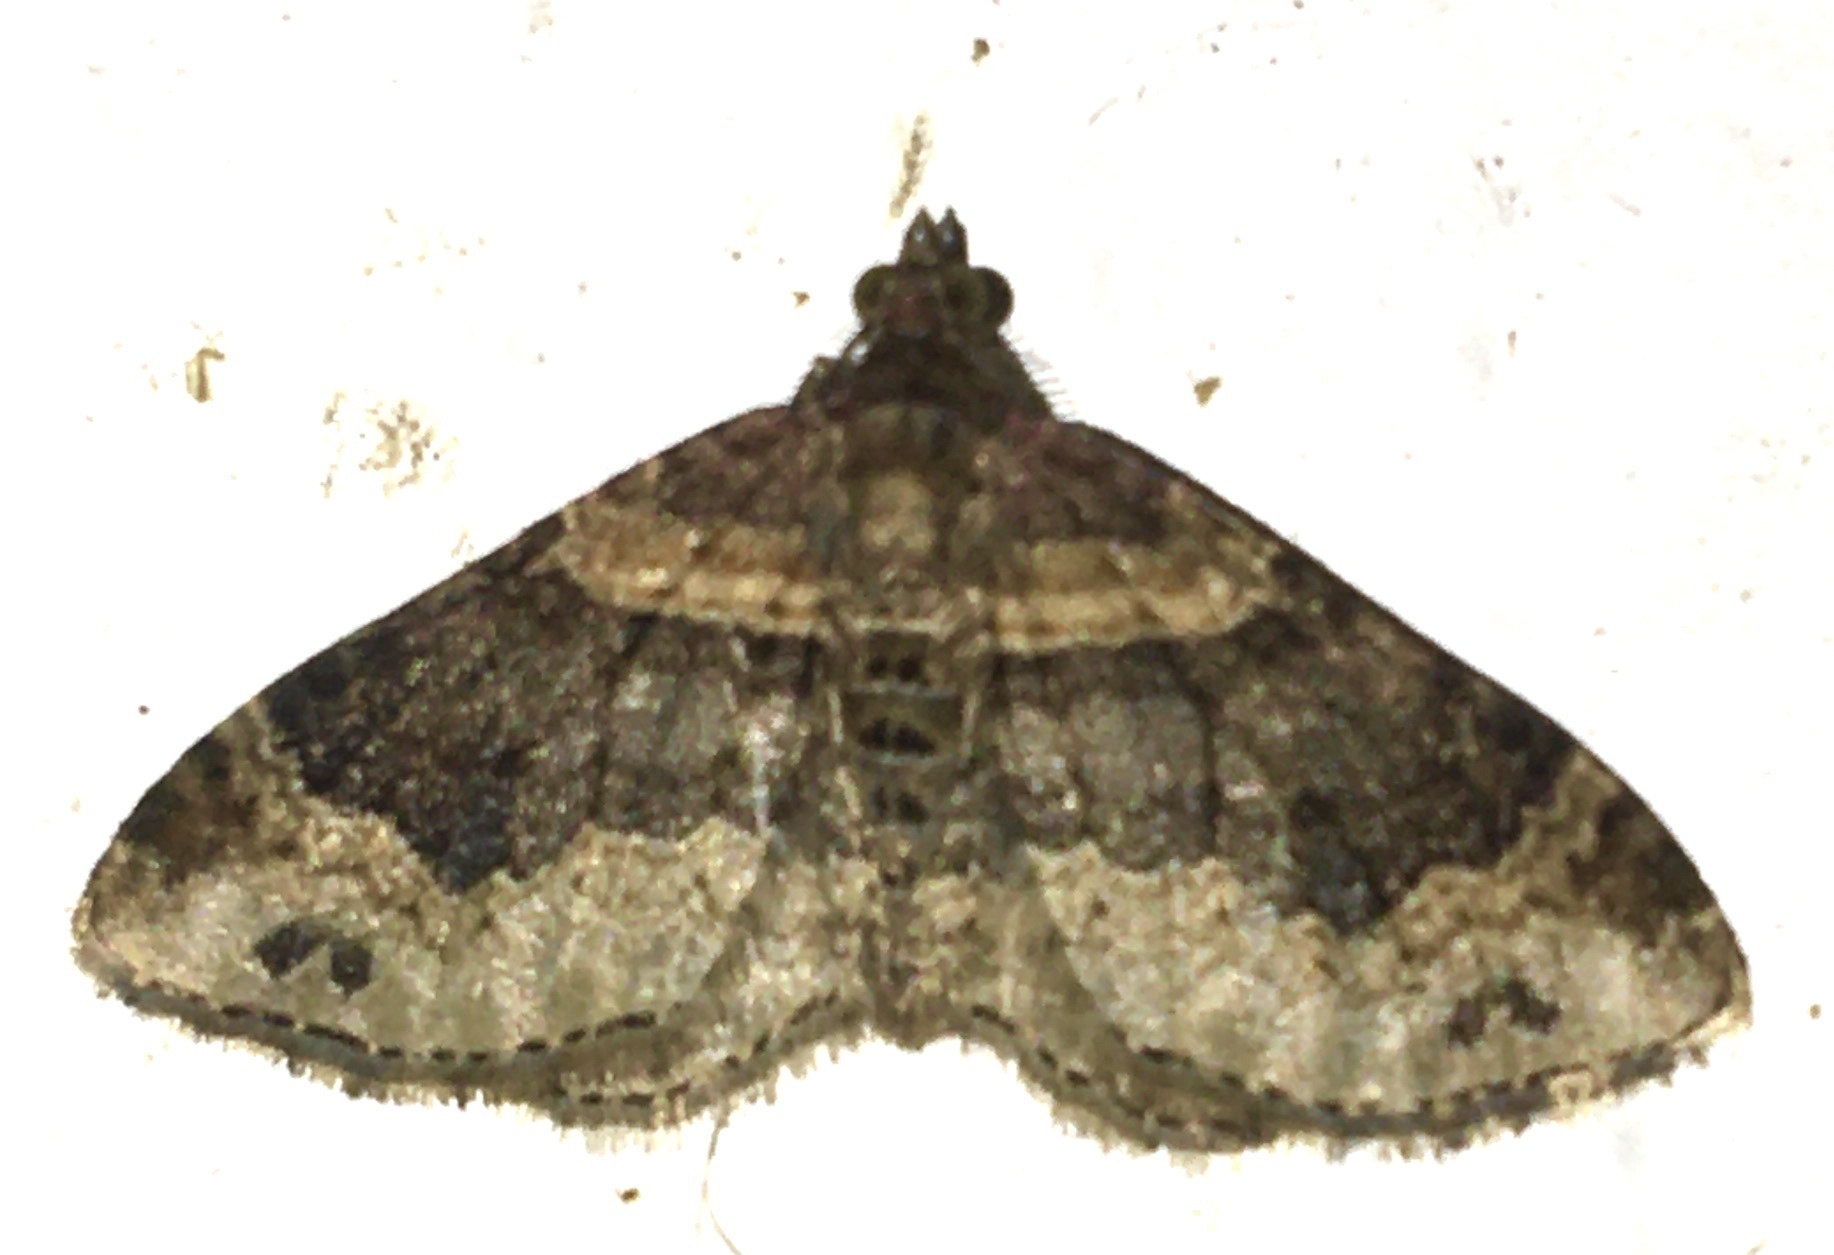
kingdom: Animalia
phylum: Arthropoda
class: Insecta
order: Lepidoptera
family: Geometridae
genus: Xanthorhoe
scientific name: Xanthorhoe ferrugata
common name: Dark-barred twin-spot carpet
